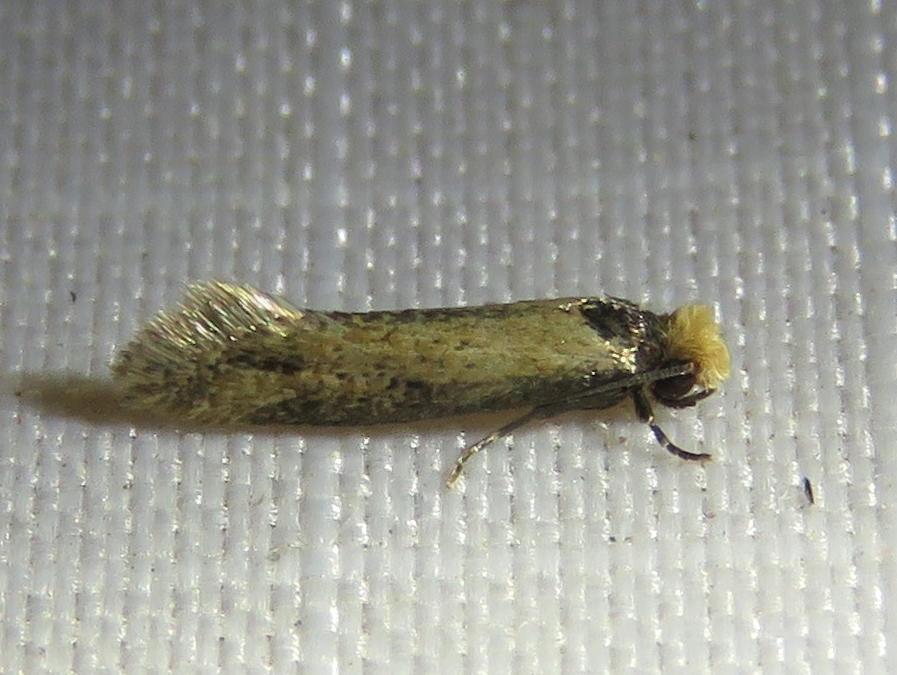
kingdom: Animalia
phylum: Arthropoda
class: Insecta
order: Lepidoptera
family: Meessiidae
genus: Homostinea
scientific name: Homostinea curviliniella
